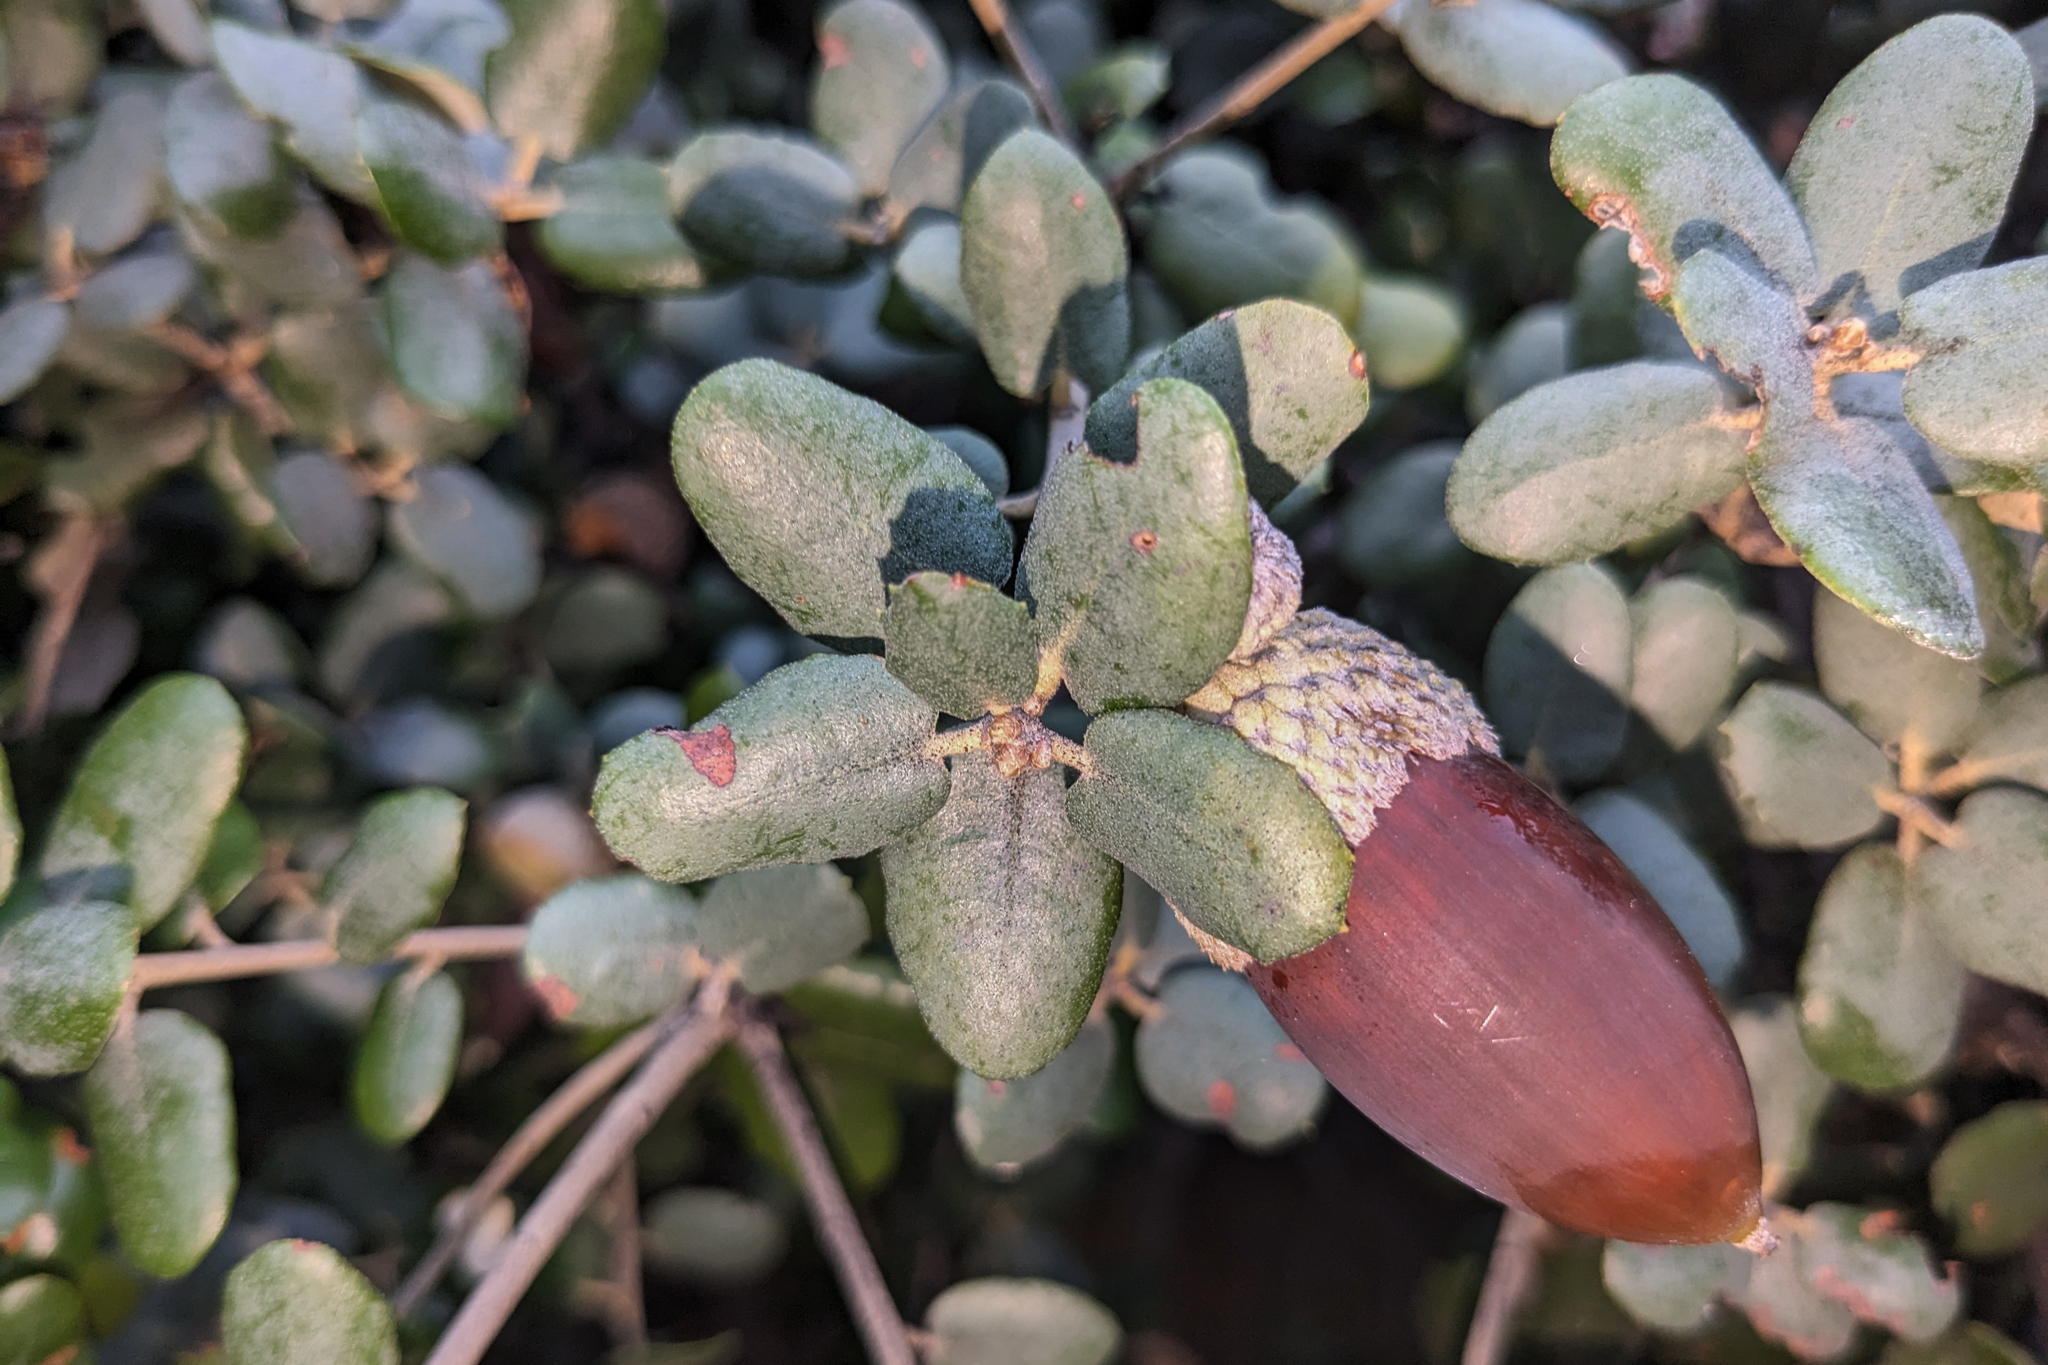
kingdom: Plantae
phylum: Tracheophyta
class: Magnoliopsida
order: Fagales
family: Fagaceae
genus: Quercus
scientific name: Quercus rotundifolia
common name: Holm oak
